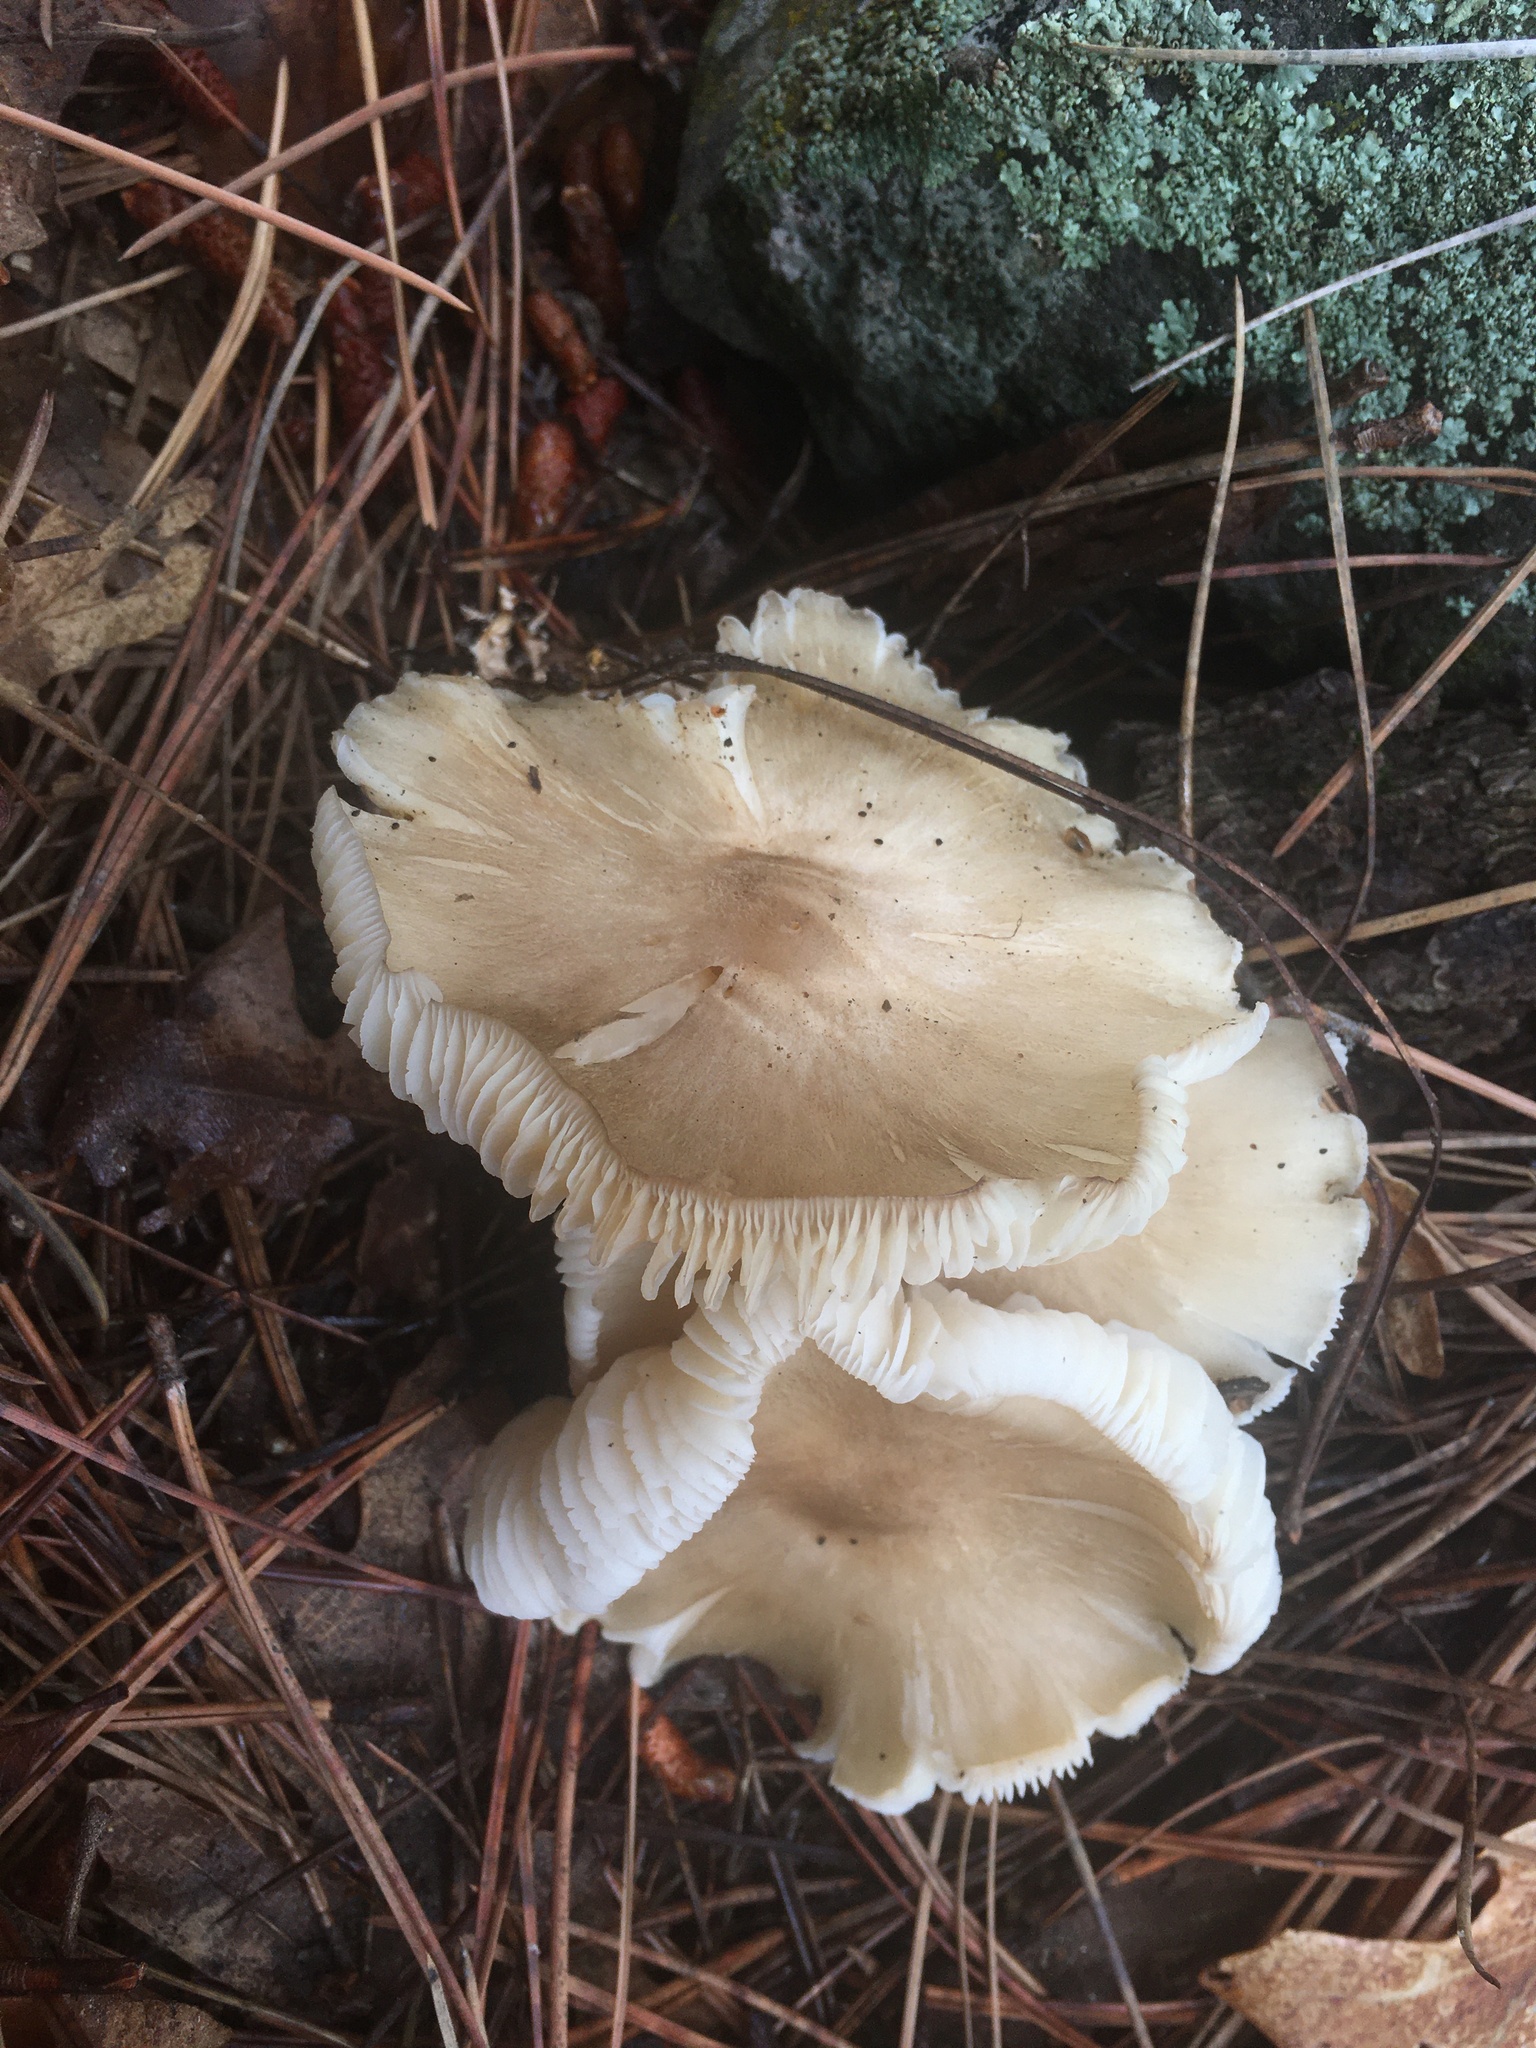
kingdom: Fungi
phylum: Basidiomycota
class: Agaricomycetes
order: Agaricales
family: Tricholomataceae
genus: Megacollybia
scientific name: Megacollybia fallax
